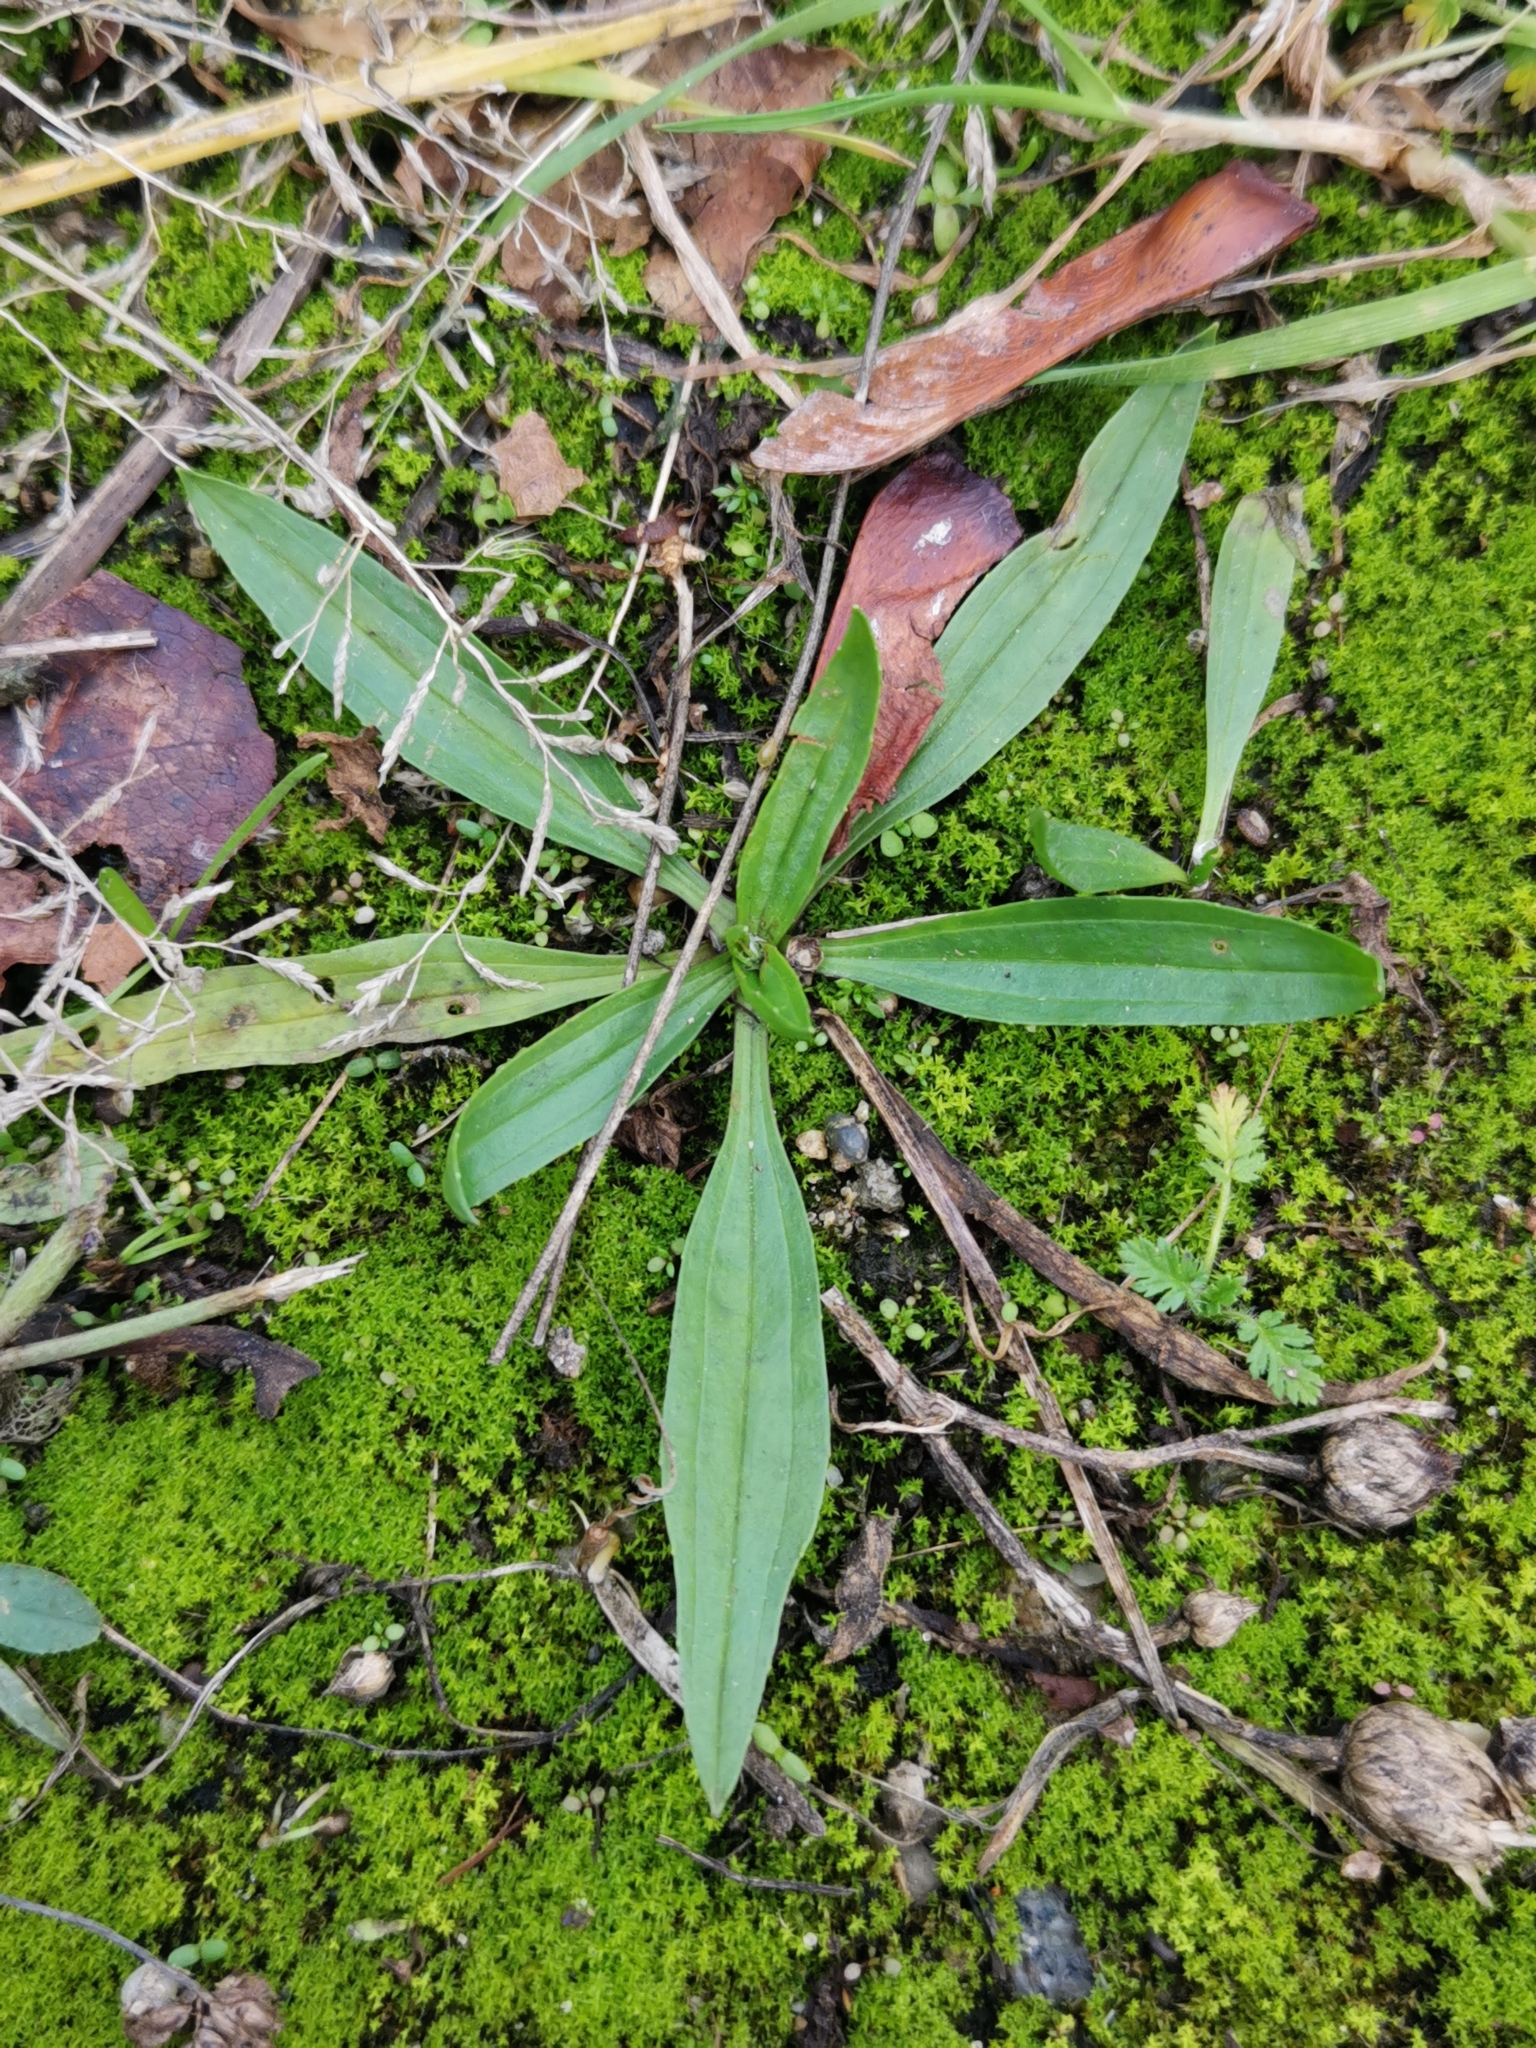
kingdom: Plantae
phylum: Tracheophyta
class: Magnoliopsida
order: Lamiales
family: Plantaginaceae
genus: Plantago
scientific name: Plantago lanceolata
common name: Ribwort plantain
